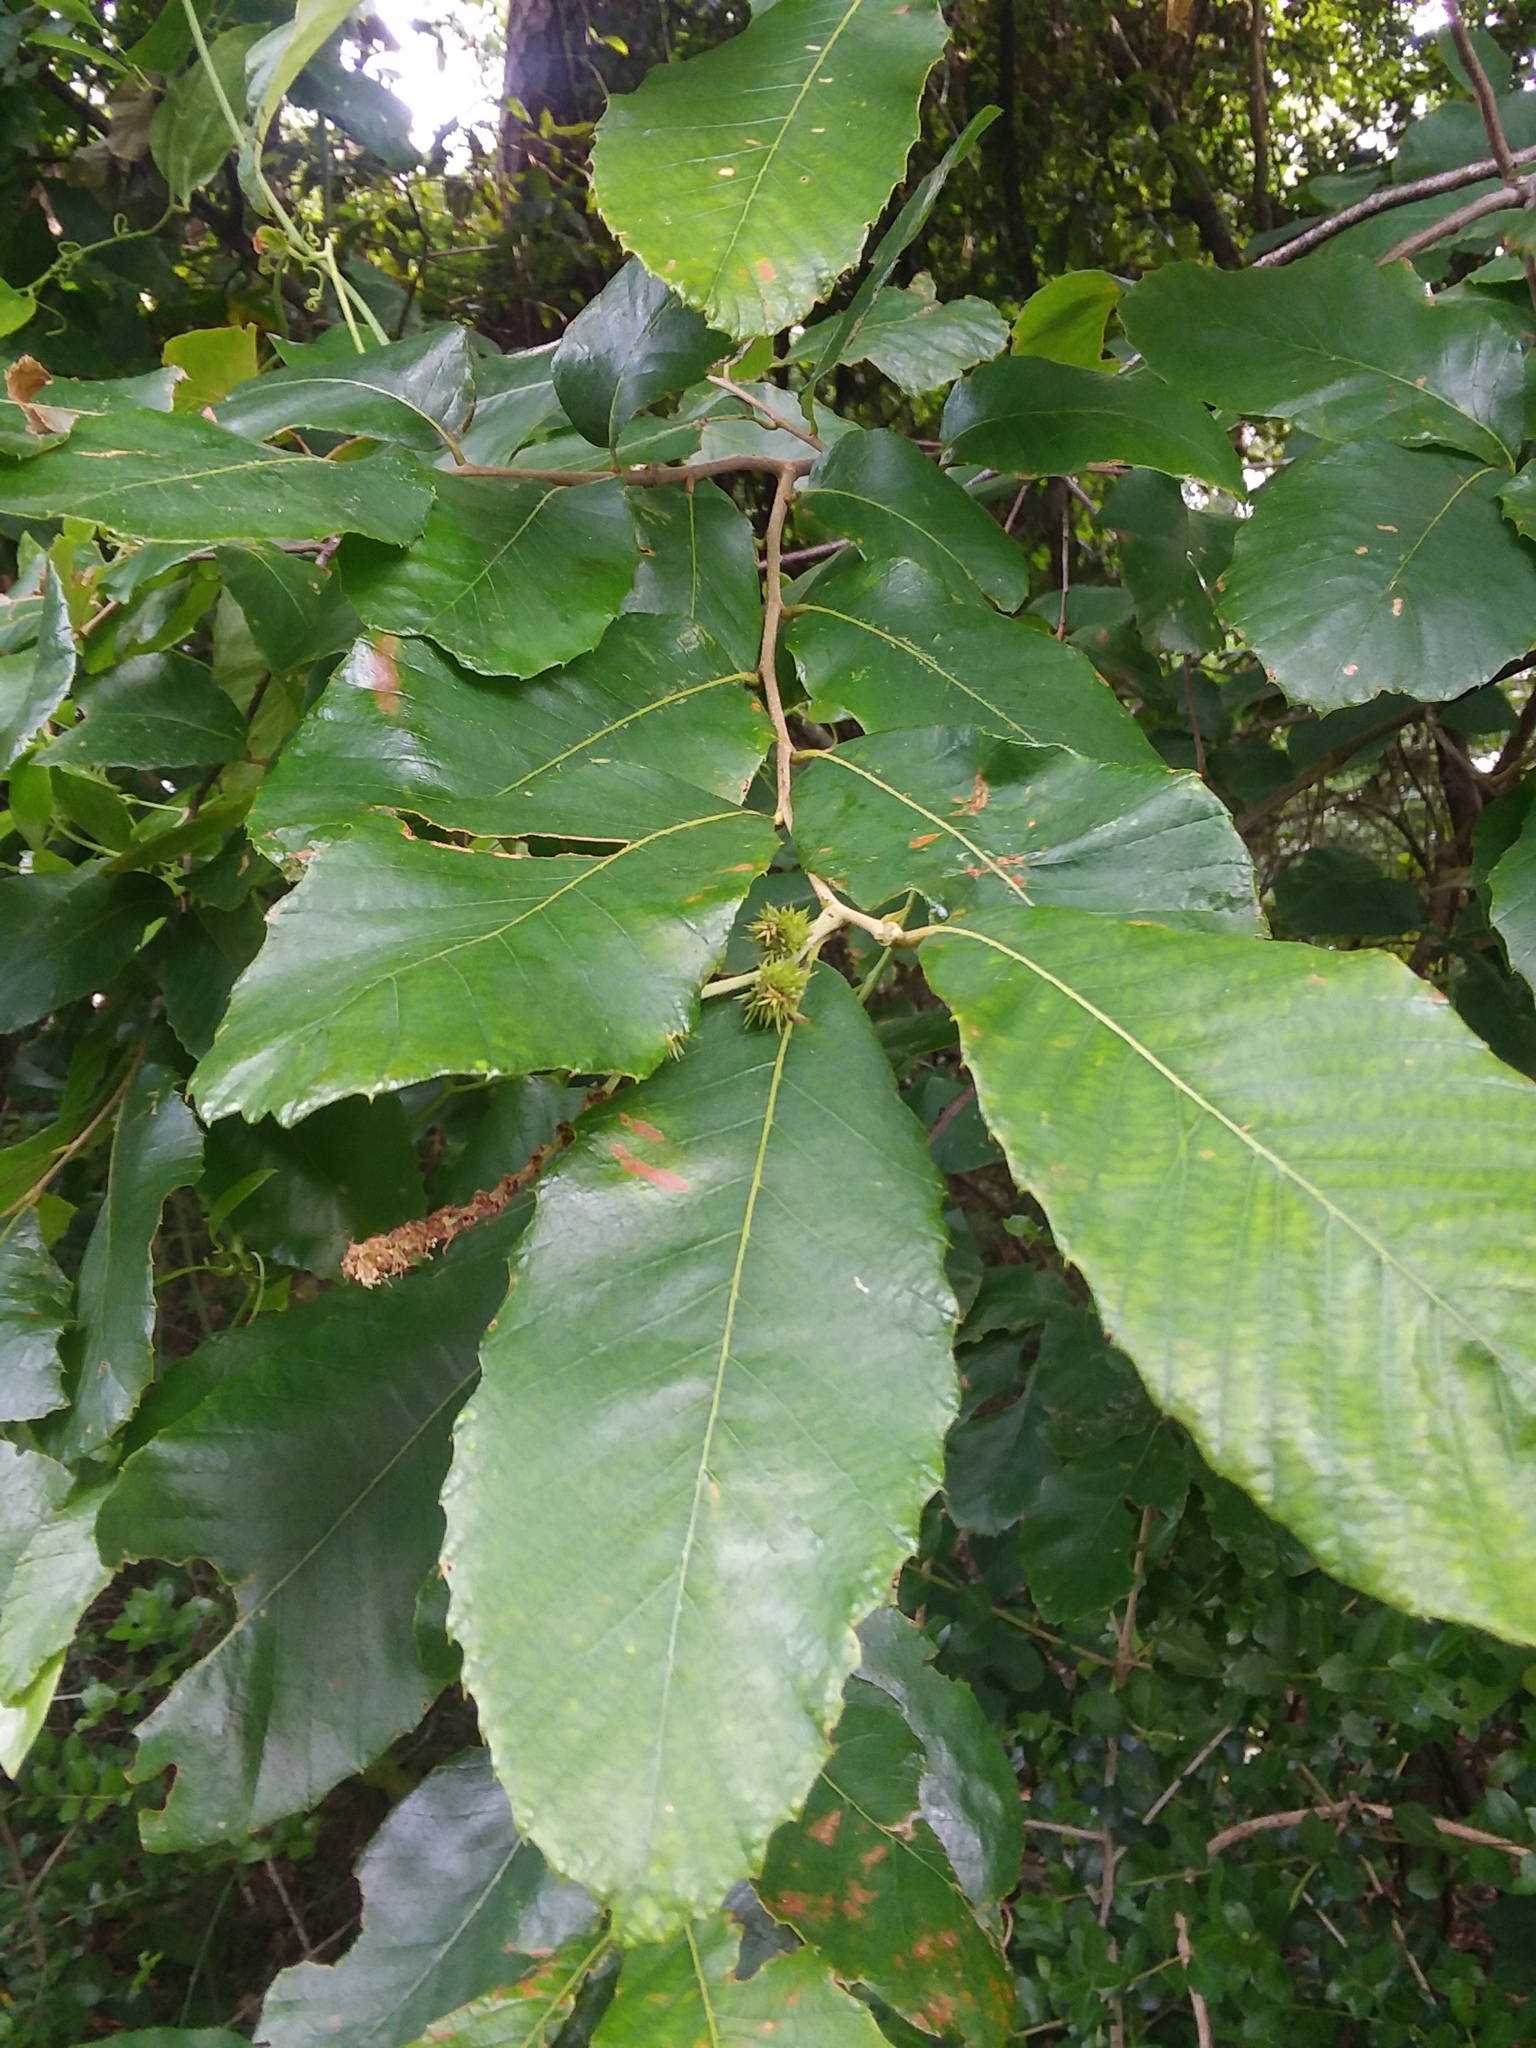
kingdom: Plantae
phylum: Tracheophyta
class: Magnoliopsida
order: Fagales
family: Fagaceae
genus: Castanea
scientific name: Castanea pumila
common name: Chinkapin
